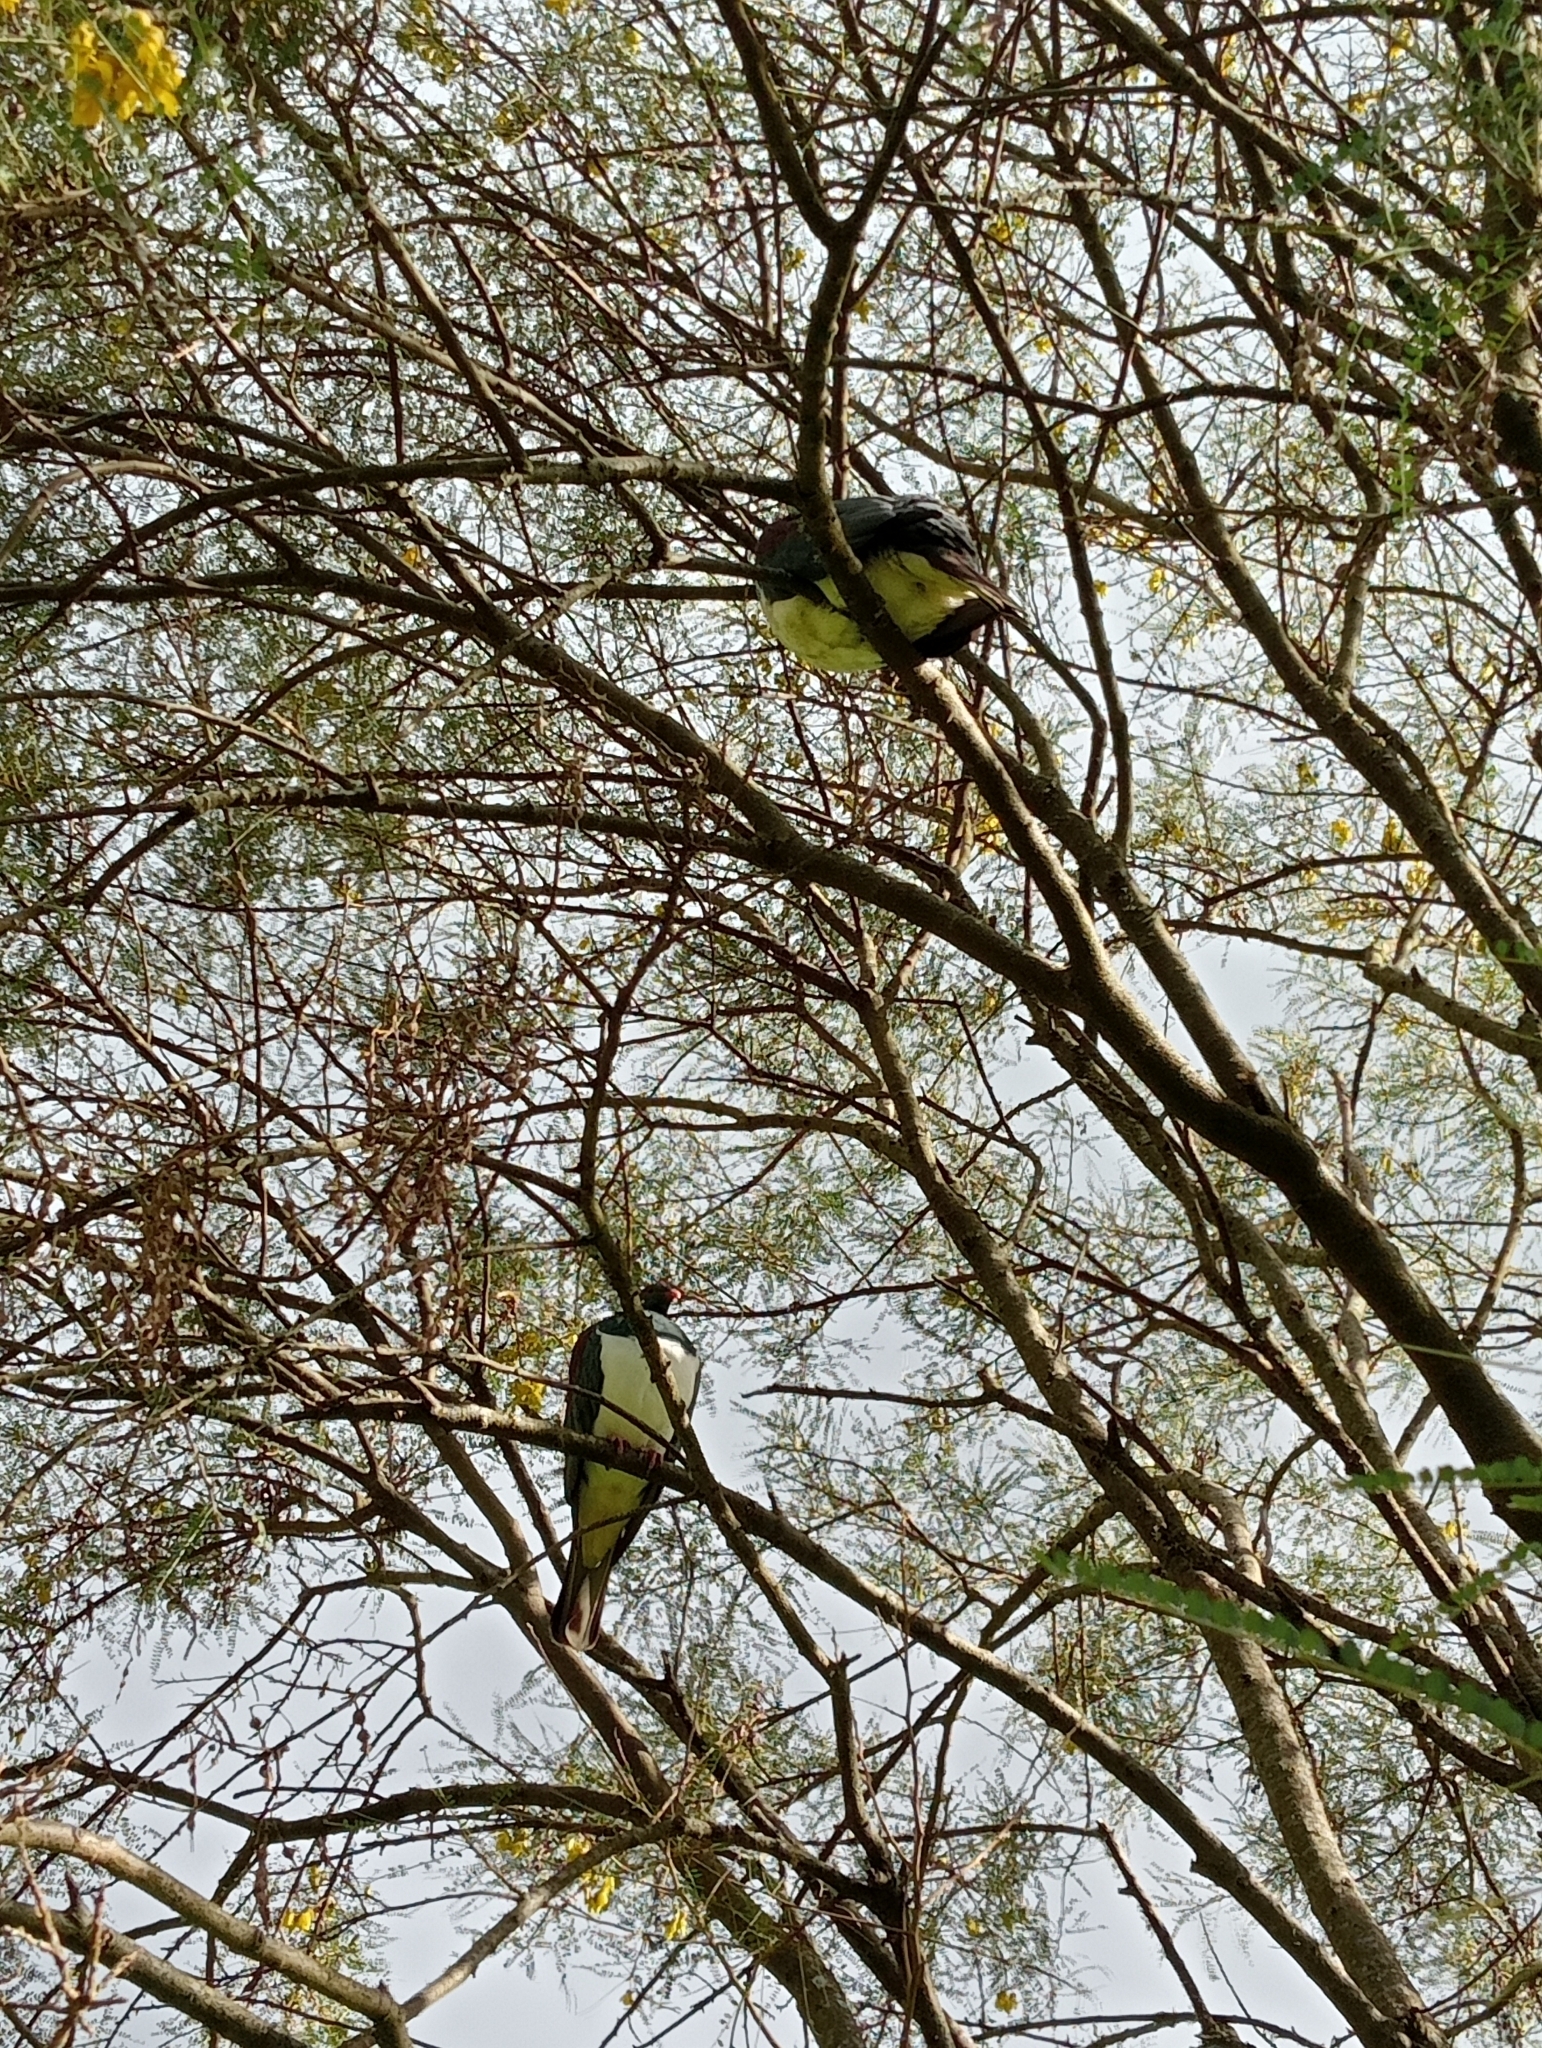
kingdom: Animalia
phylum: Chordata
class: Aves
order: Columbiformes
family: Columbidae
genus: Hemiphaga
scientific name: Hemiphaga novaeseelandiae
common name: New zealand pigeon
